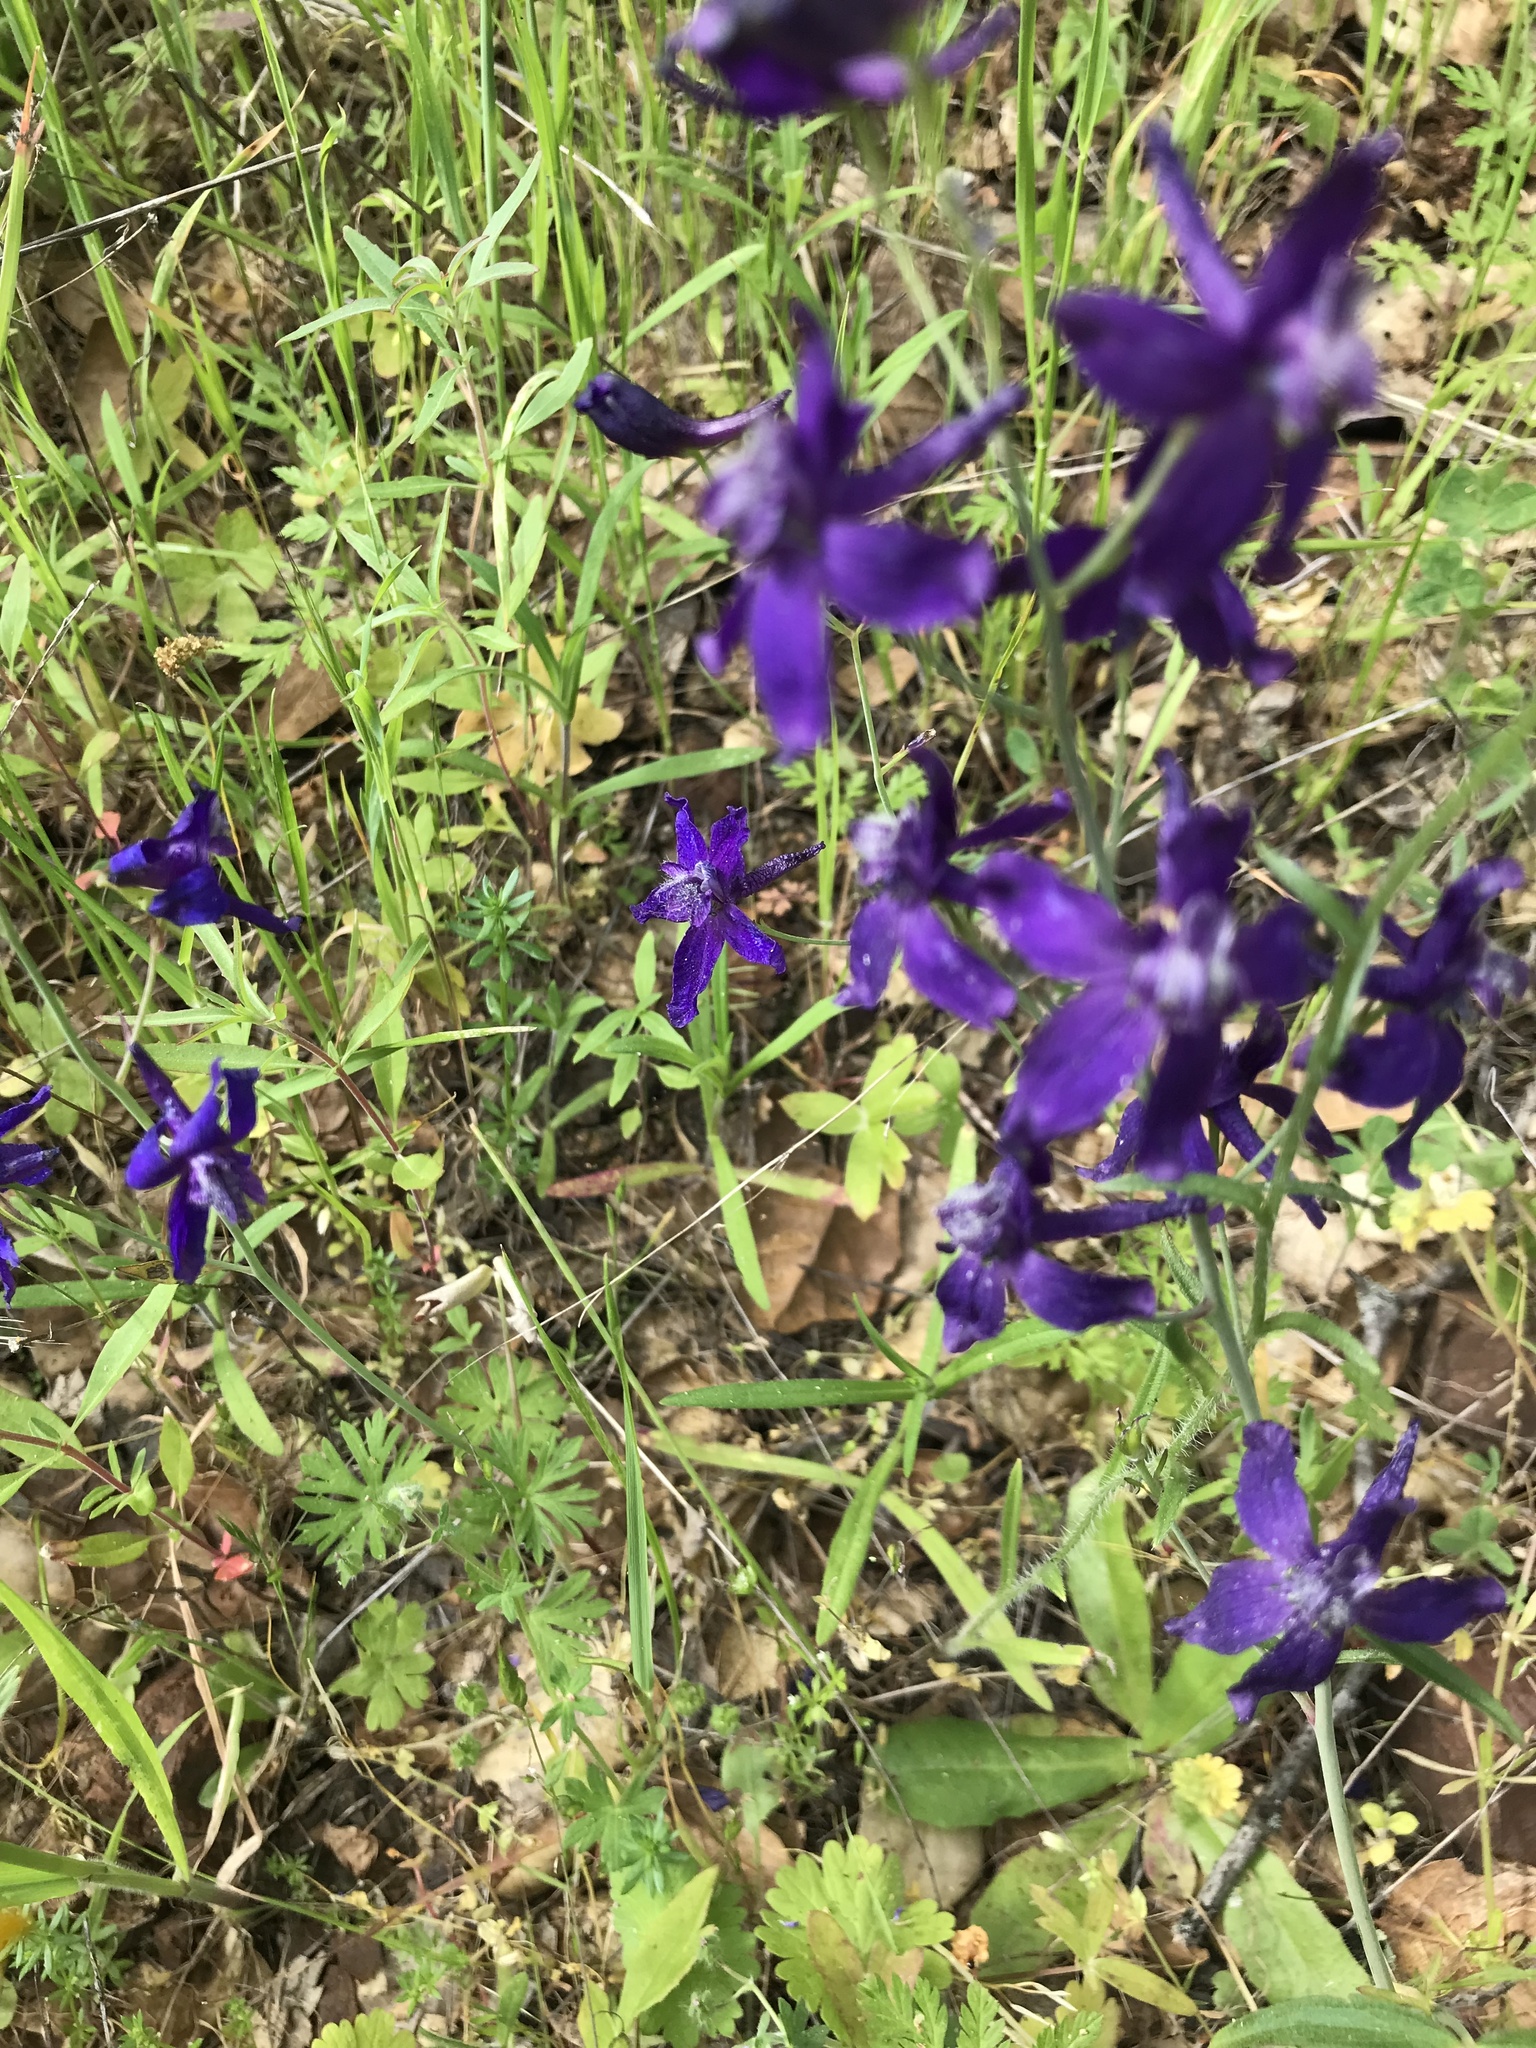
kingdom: Plantae
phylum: Tracheophyta
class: Magnoliopsida
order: Ranunculales
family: Ranunculaceae
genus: Delphinium
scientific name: Delphinium patens
